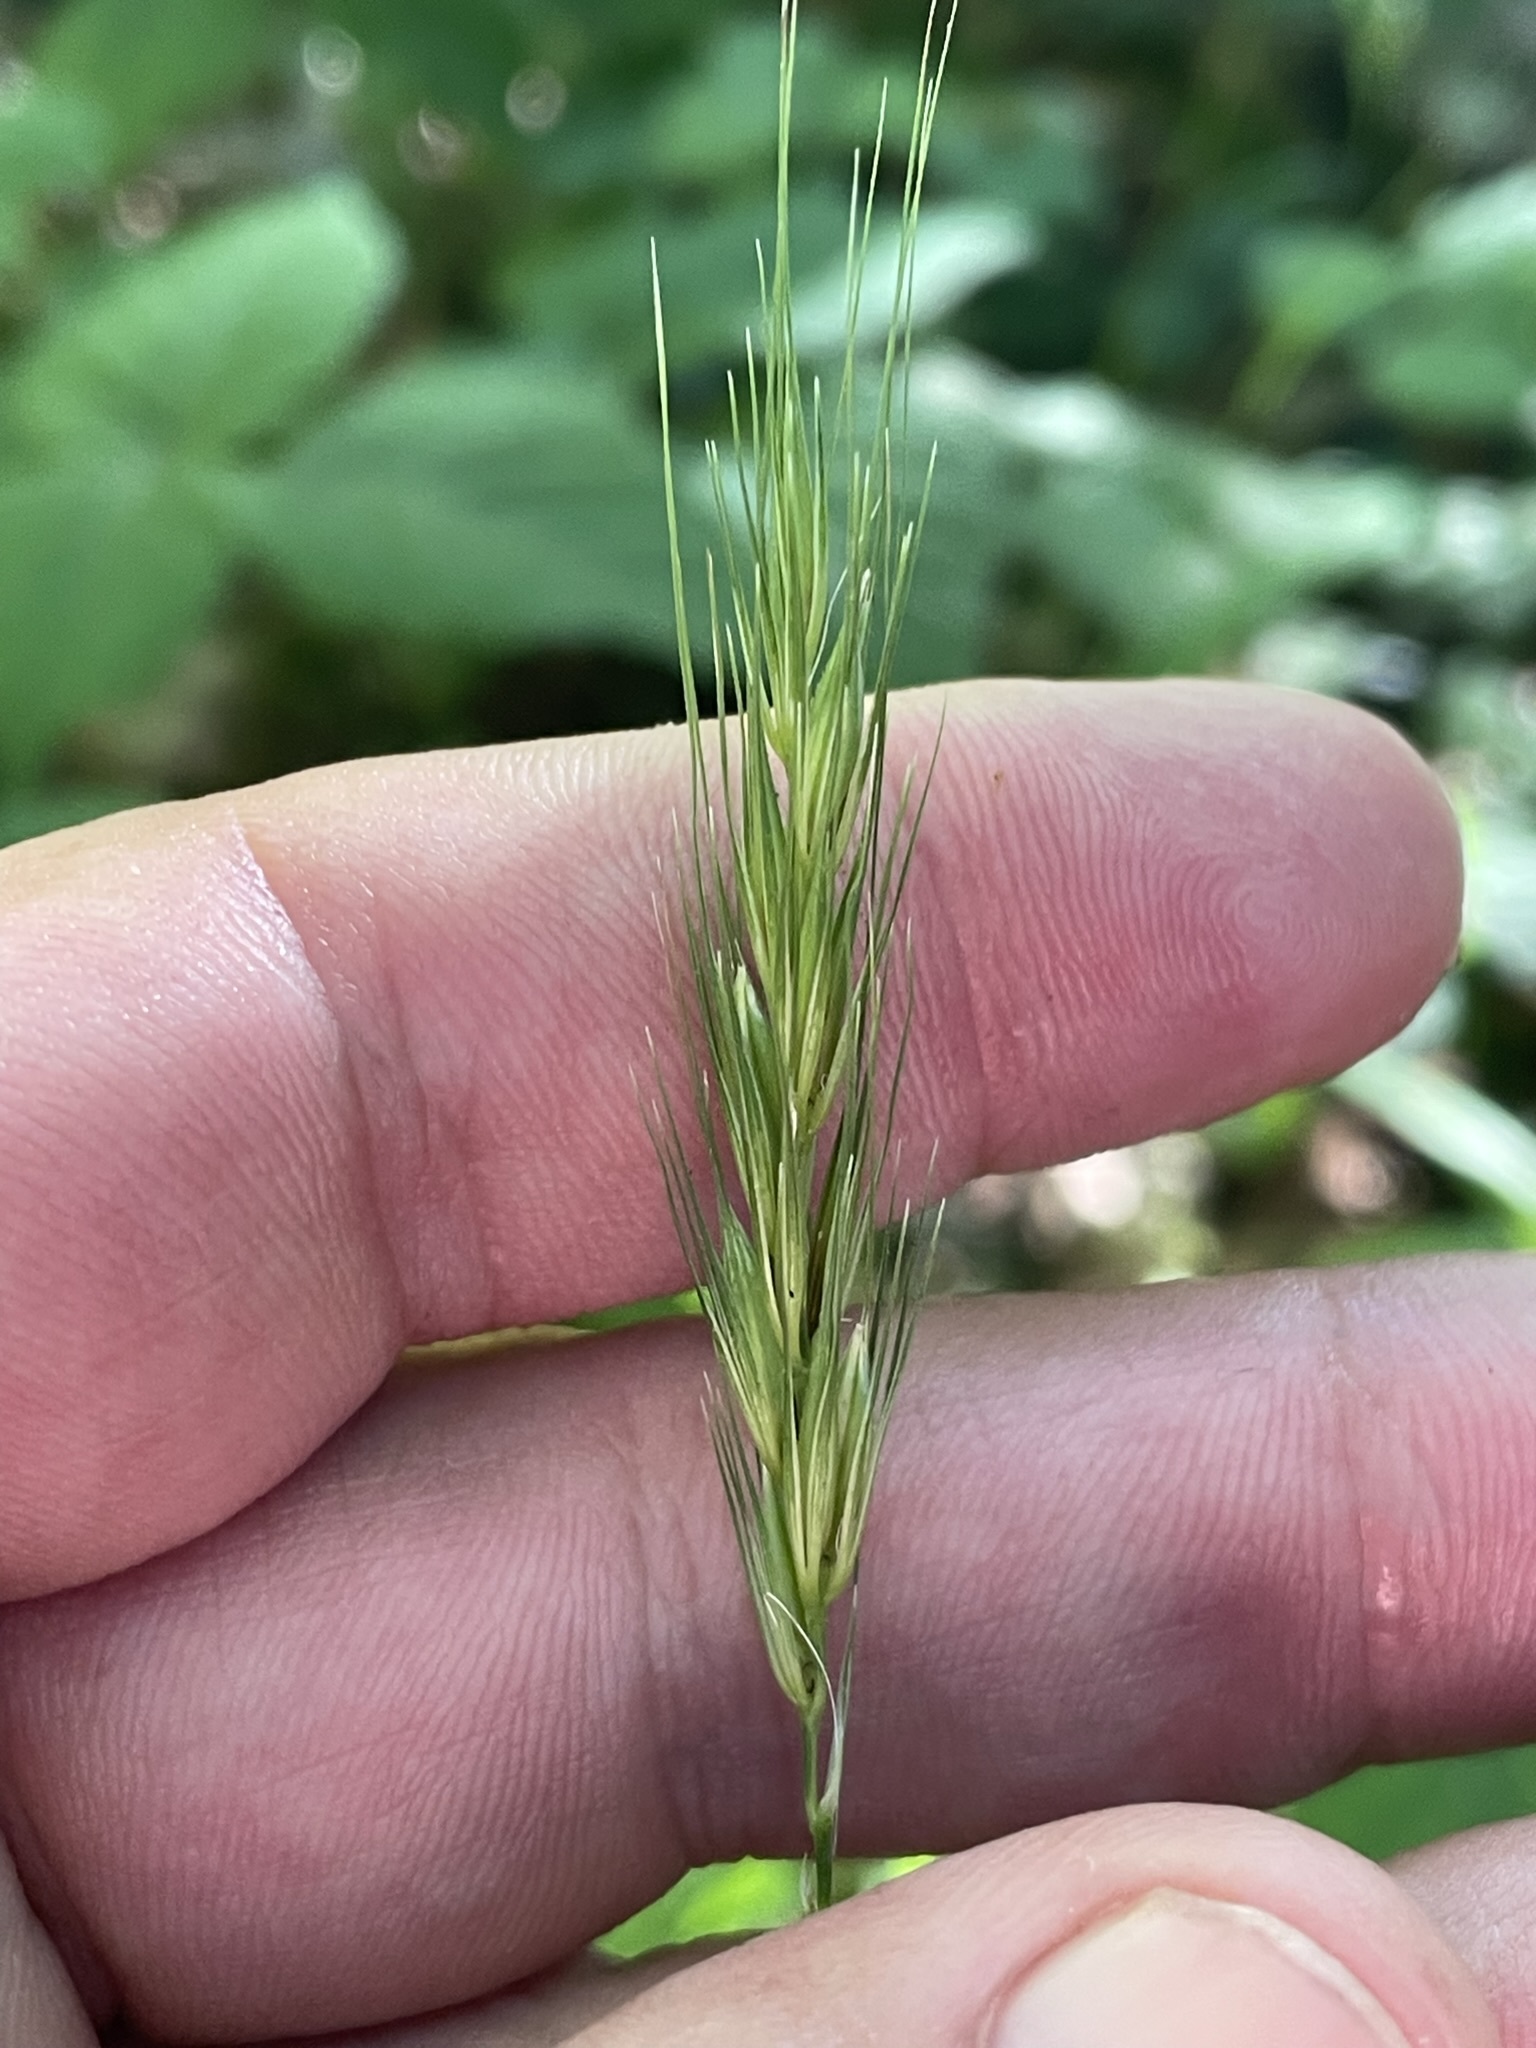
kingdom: Plantae
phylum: Tracheophyta
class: Liliopsida
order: Poales
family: Poaceae
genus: Hordelymus
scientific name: Hordelymus europaeus
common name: Wood-barley
